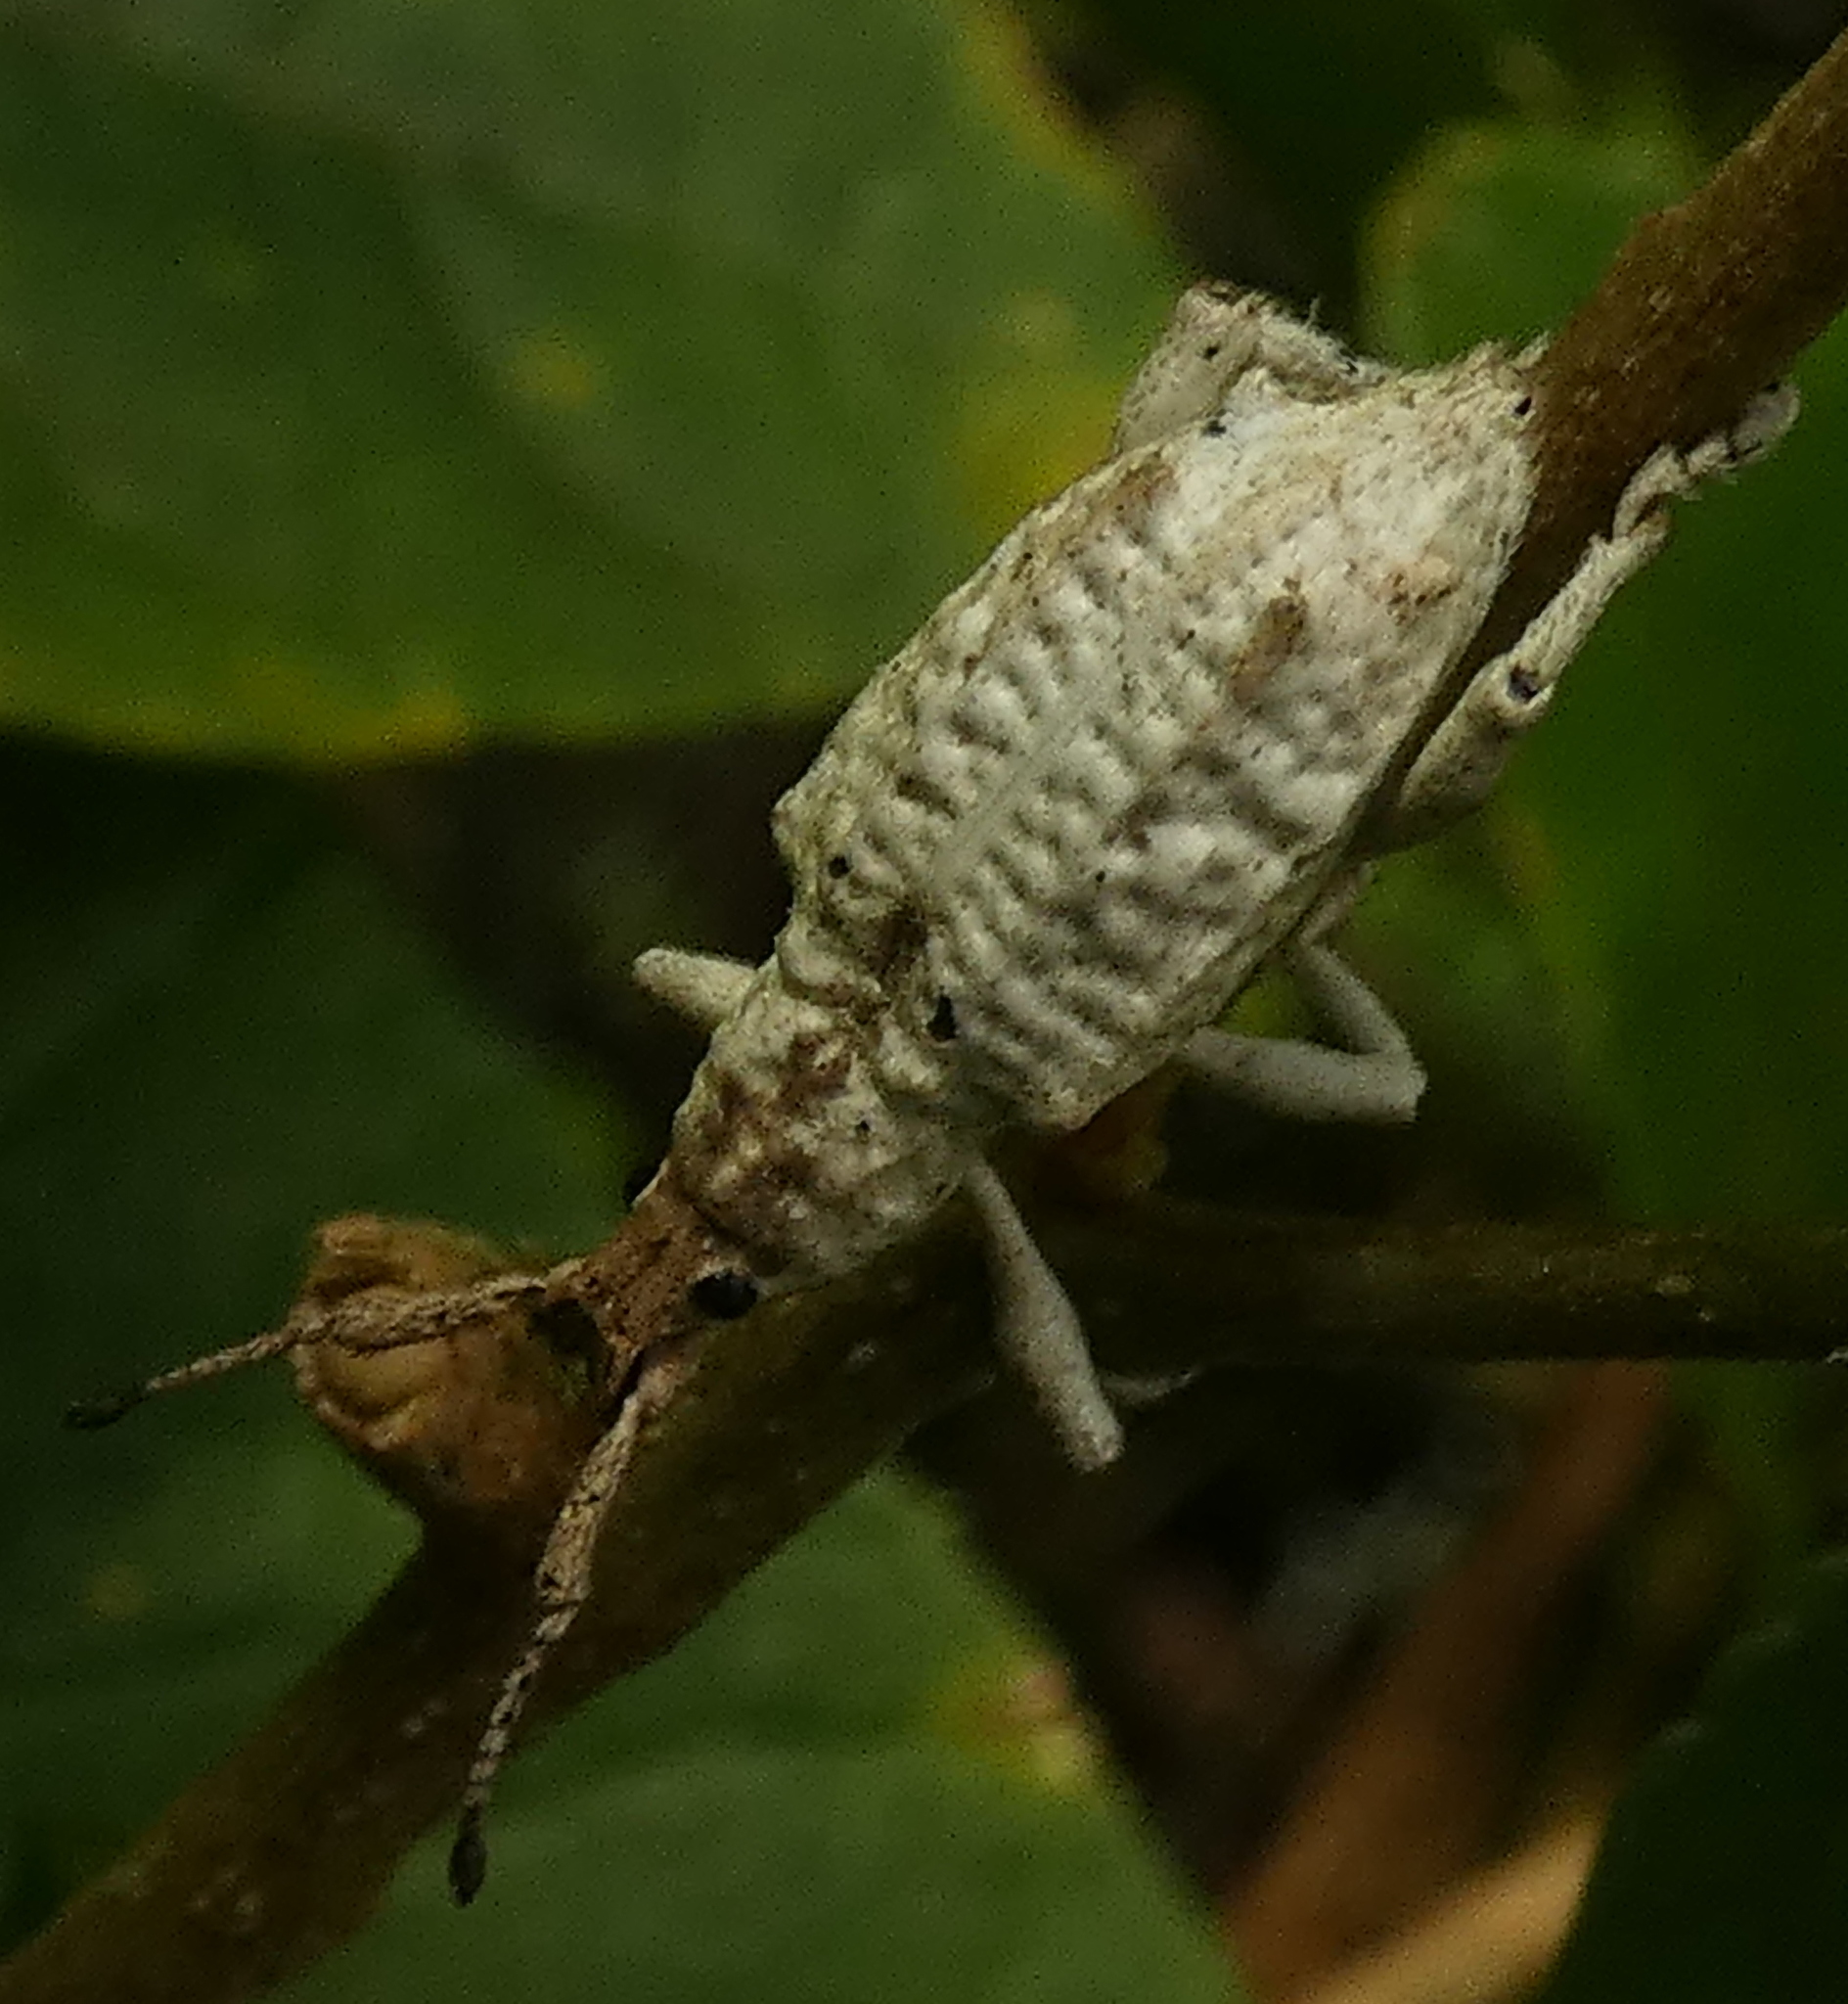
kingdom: Animalia
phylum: Arthropoda
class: Insecta
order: Coleoptera
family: Curculionidae
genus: Compsus
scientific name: Compsus niveus
